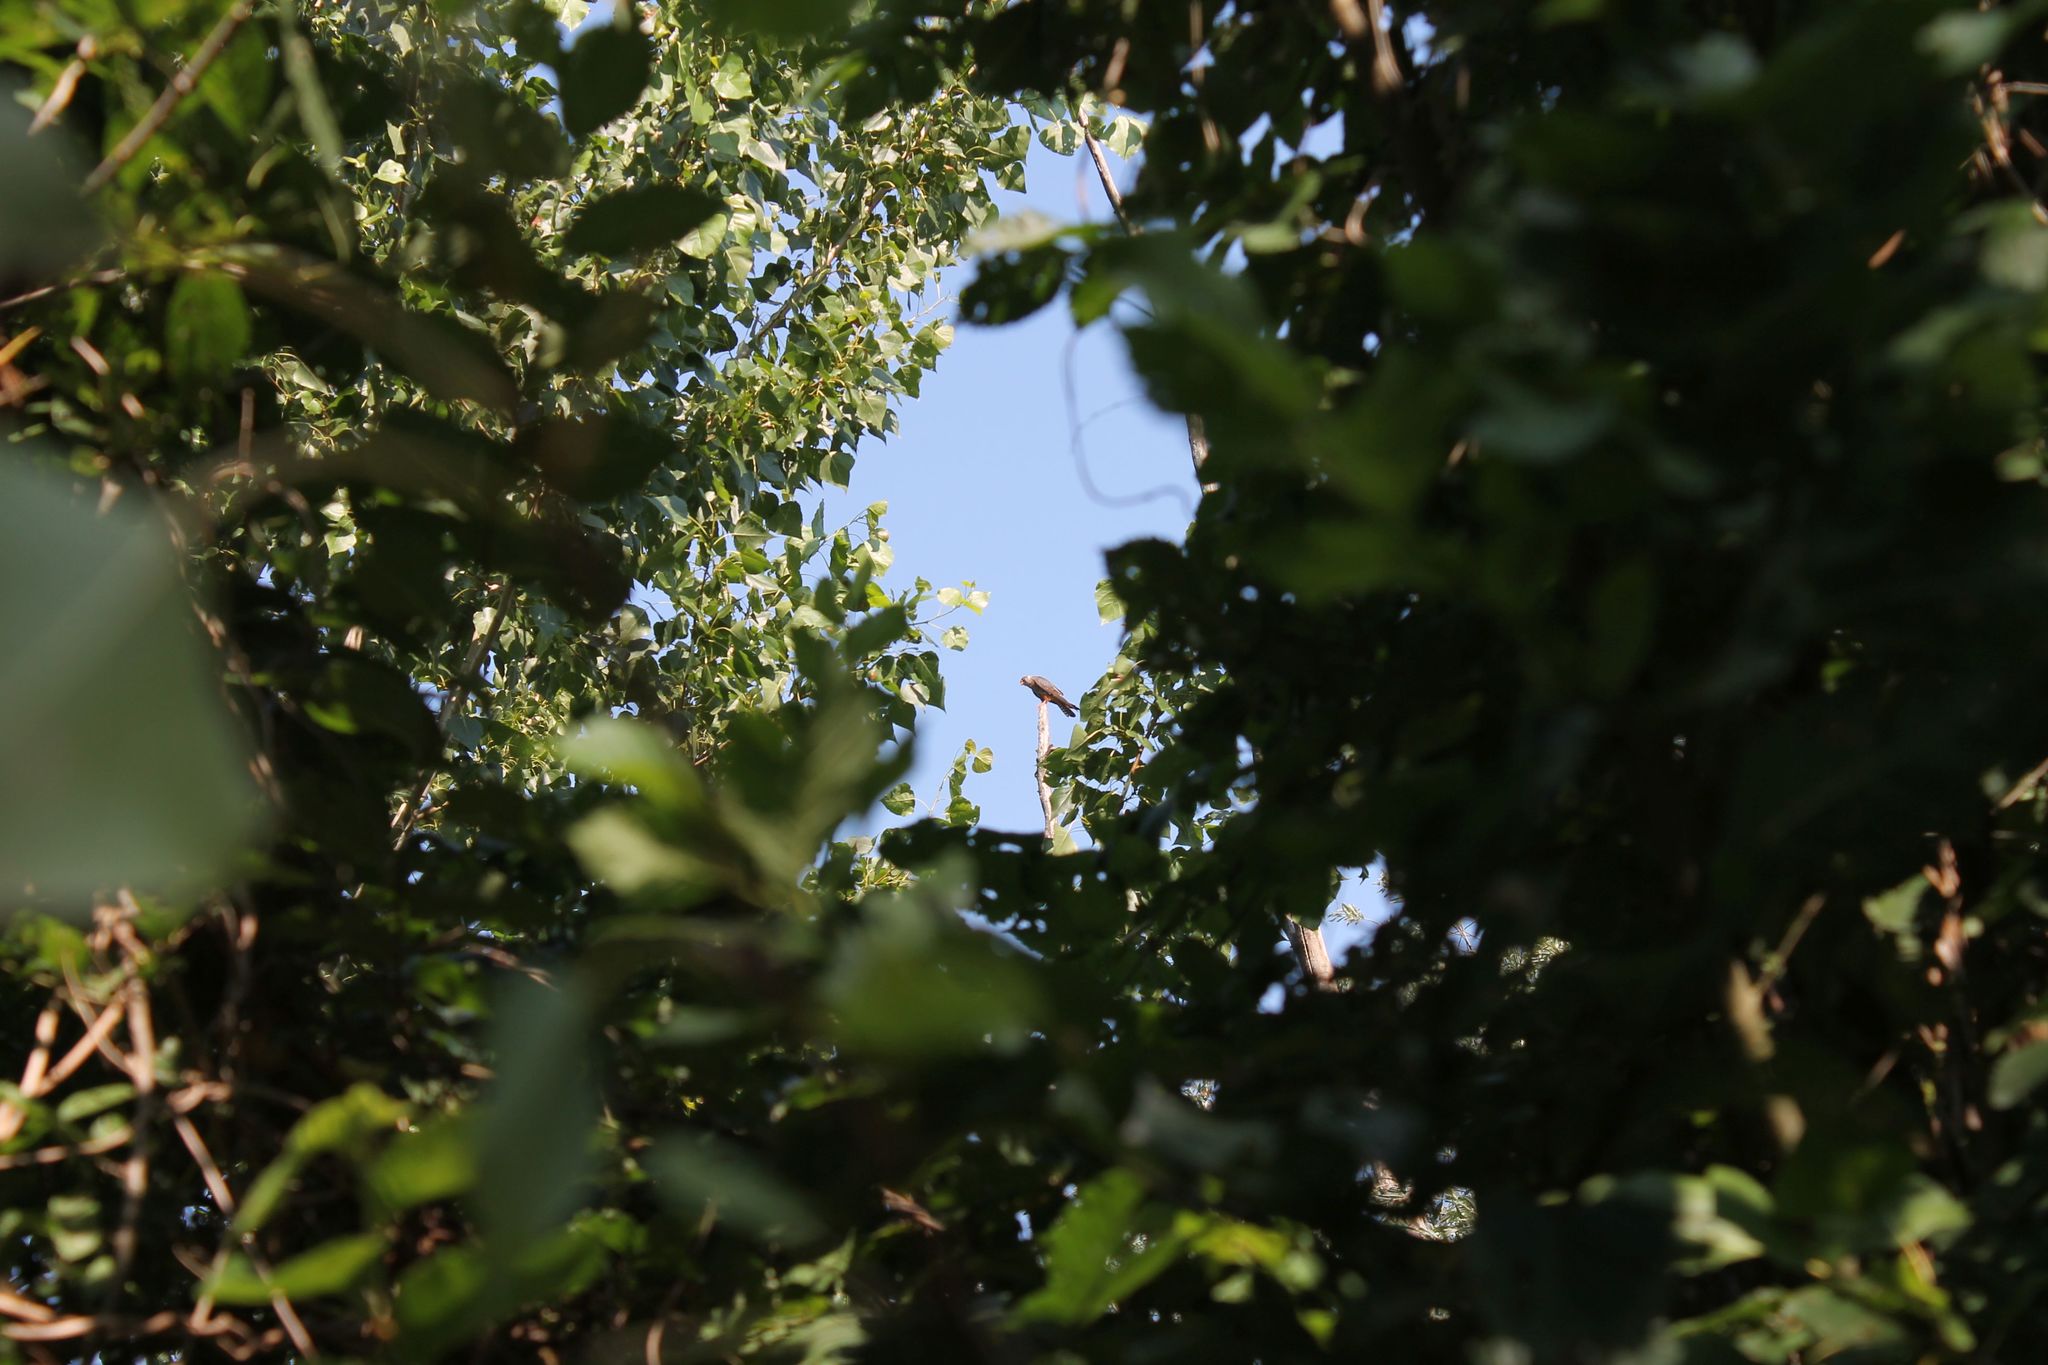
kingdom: Animalia
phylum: Chordata
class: Aves
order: Falconiformes
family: Falconidae
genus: Falco
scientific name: Falco vespertinus
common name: Red-footed falcon
